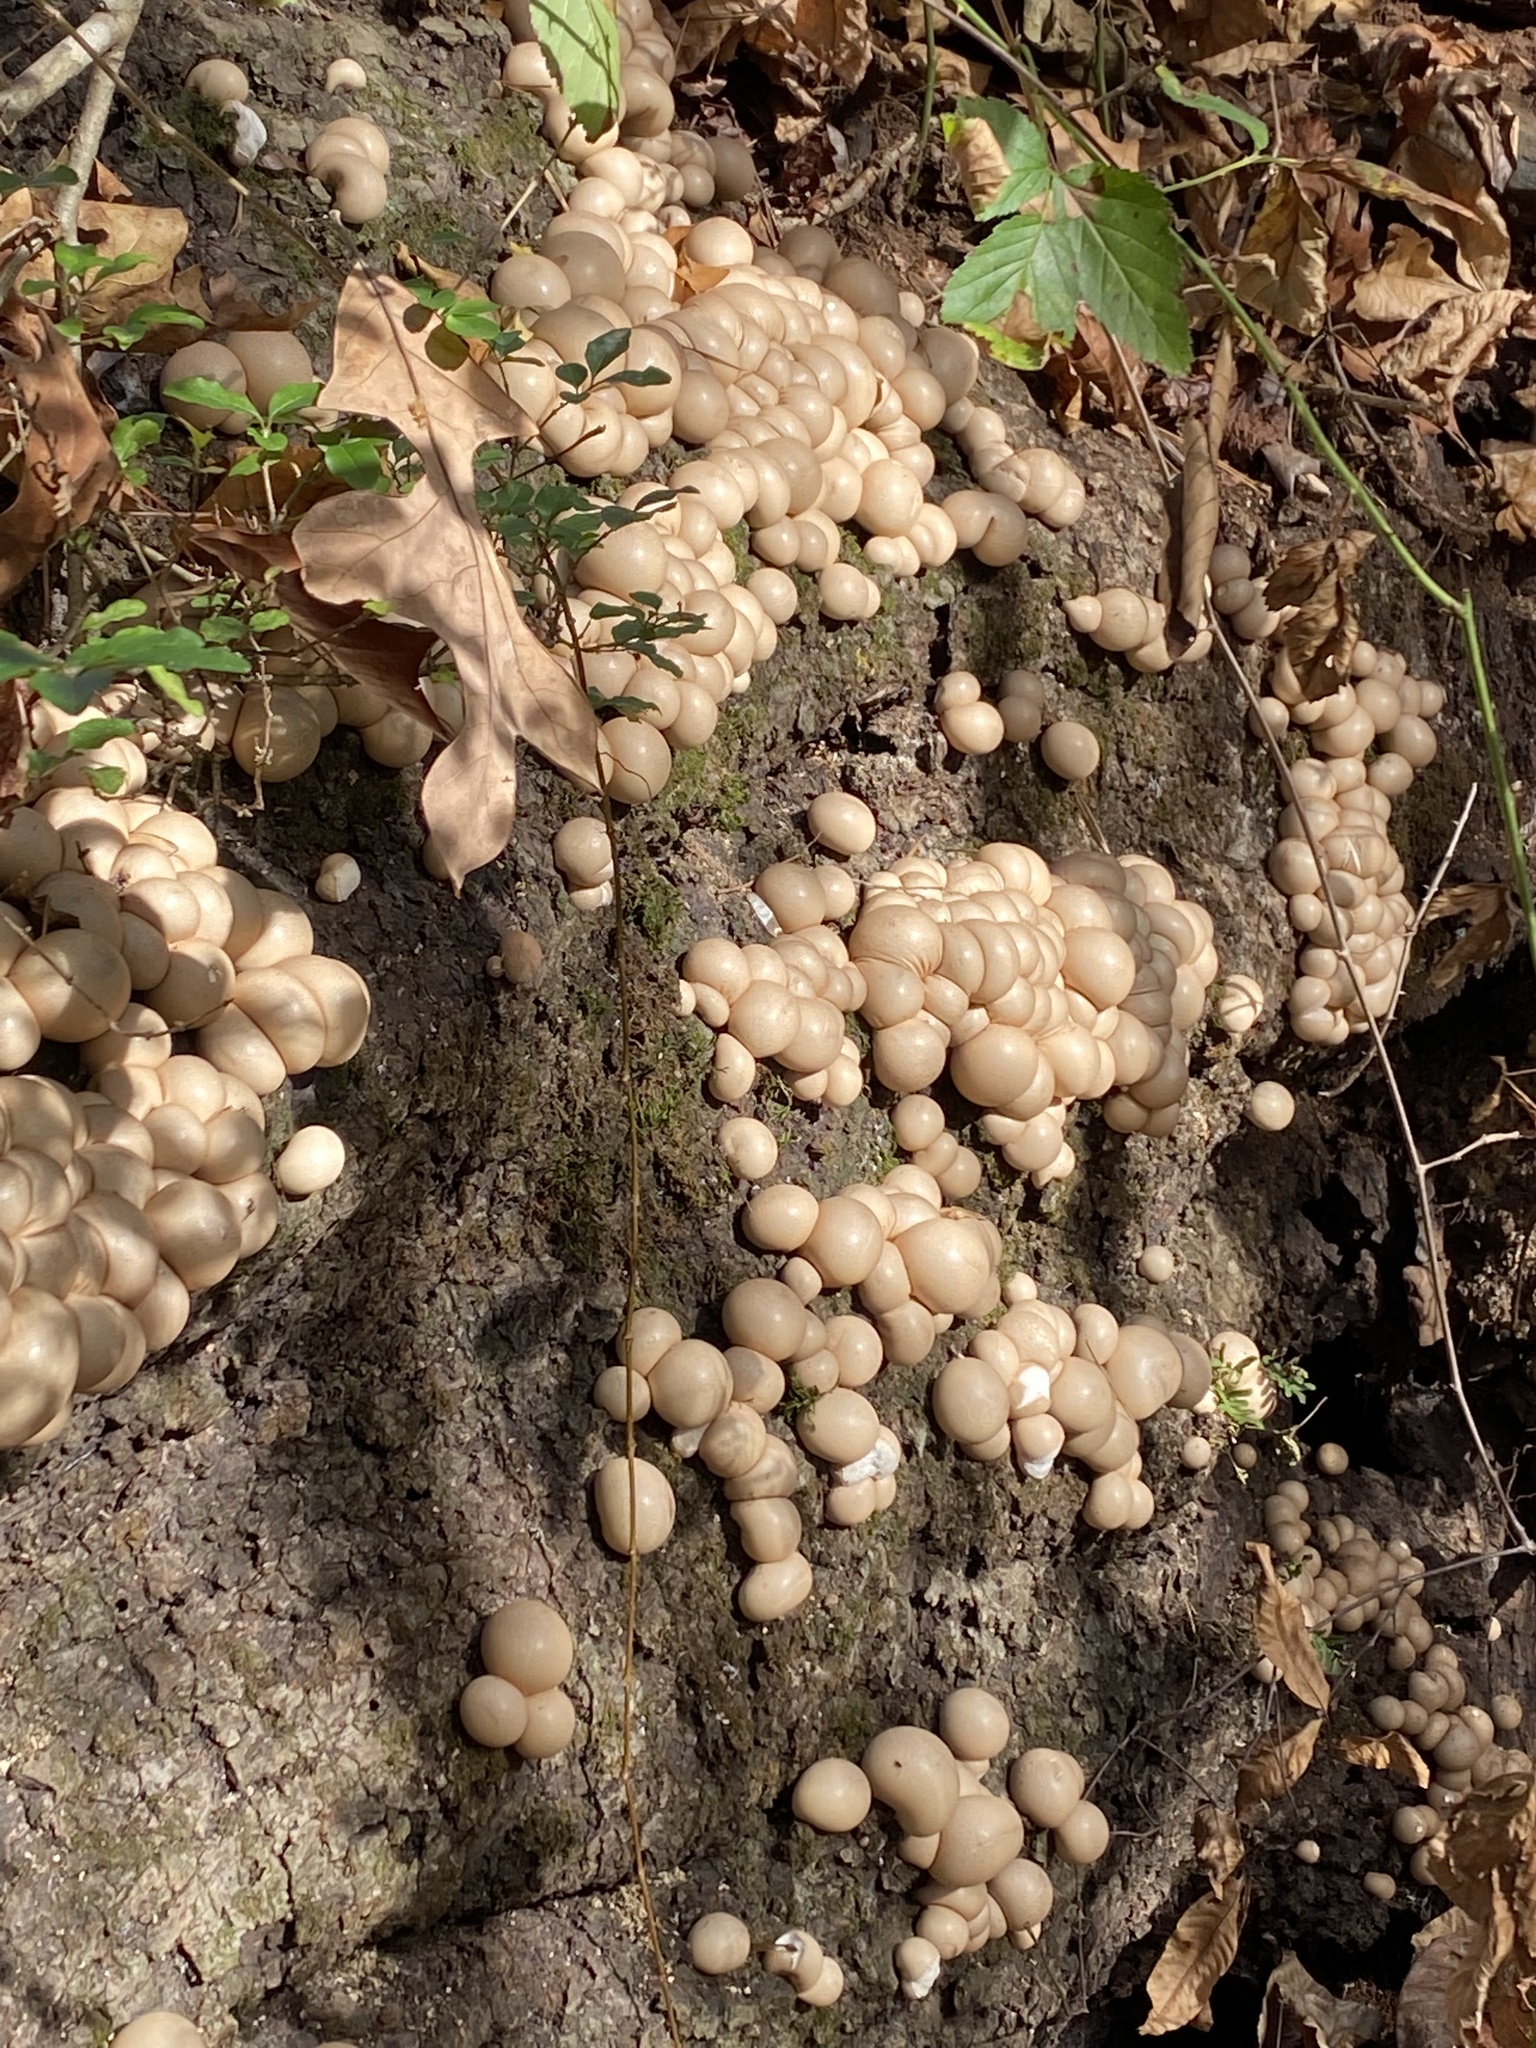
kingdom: Fungi
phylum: Basidiomycota
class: Agaricomycetes
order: Agaricales
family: Lycoperdaceae
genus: Apioperdon
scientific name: Apioperdon pyriforme
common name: Pear-shaped puffball
